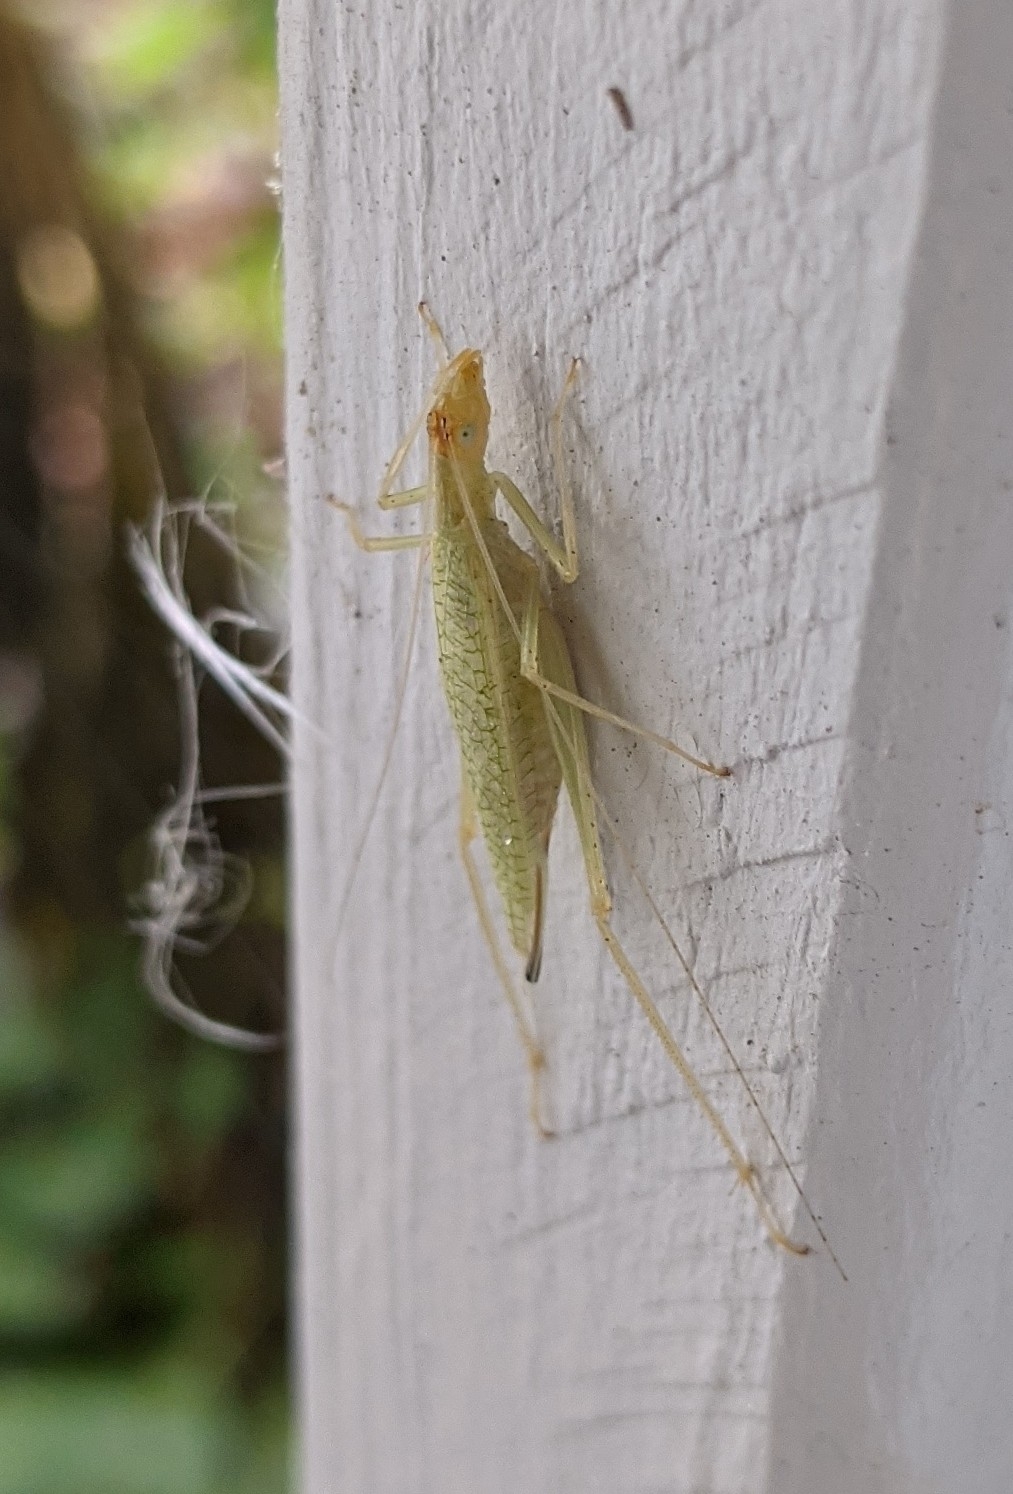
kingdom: Animalia
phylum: Arthropoda
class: Insecta
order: Orthoptera
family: Gryllidae
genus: Oecanthus
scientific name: Oecanthus niveus
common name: Narrow-winged tree cricket
